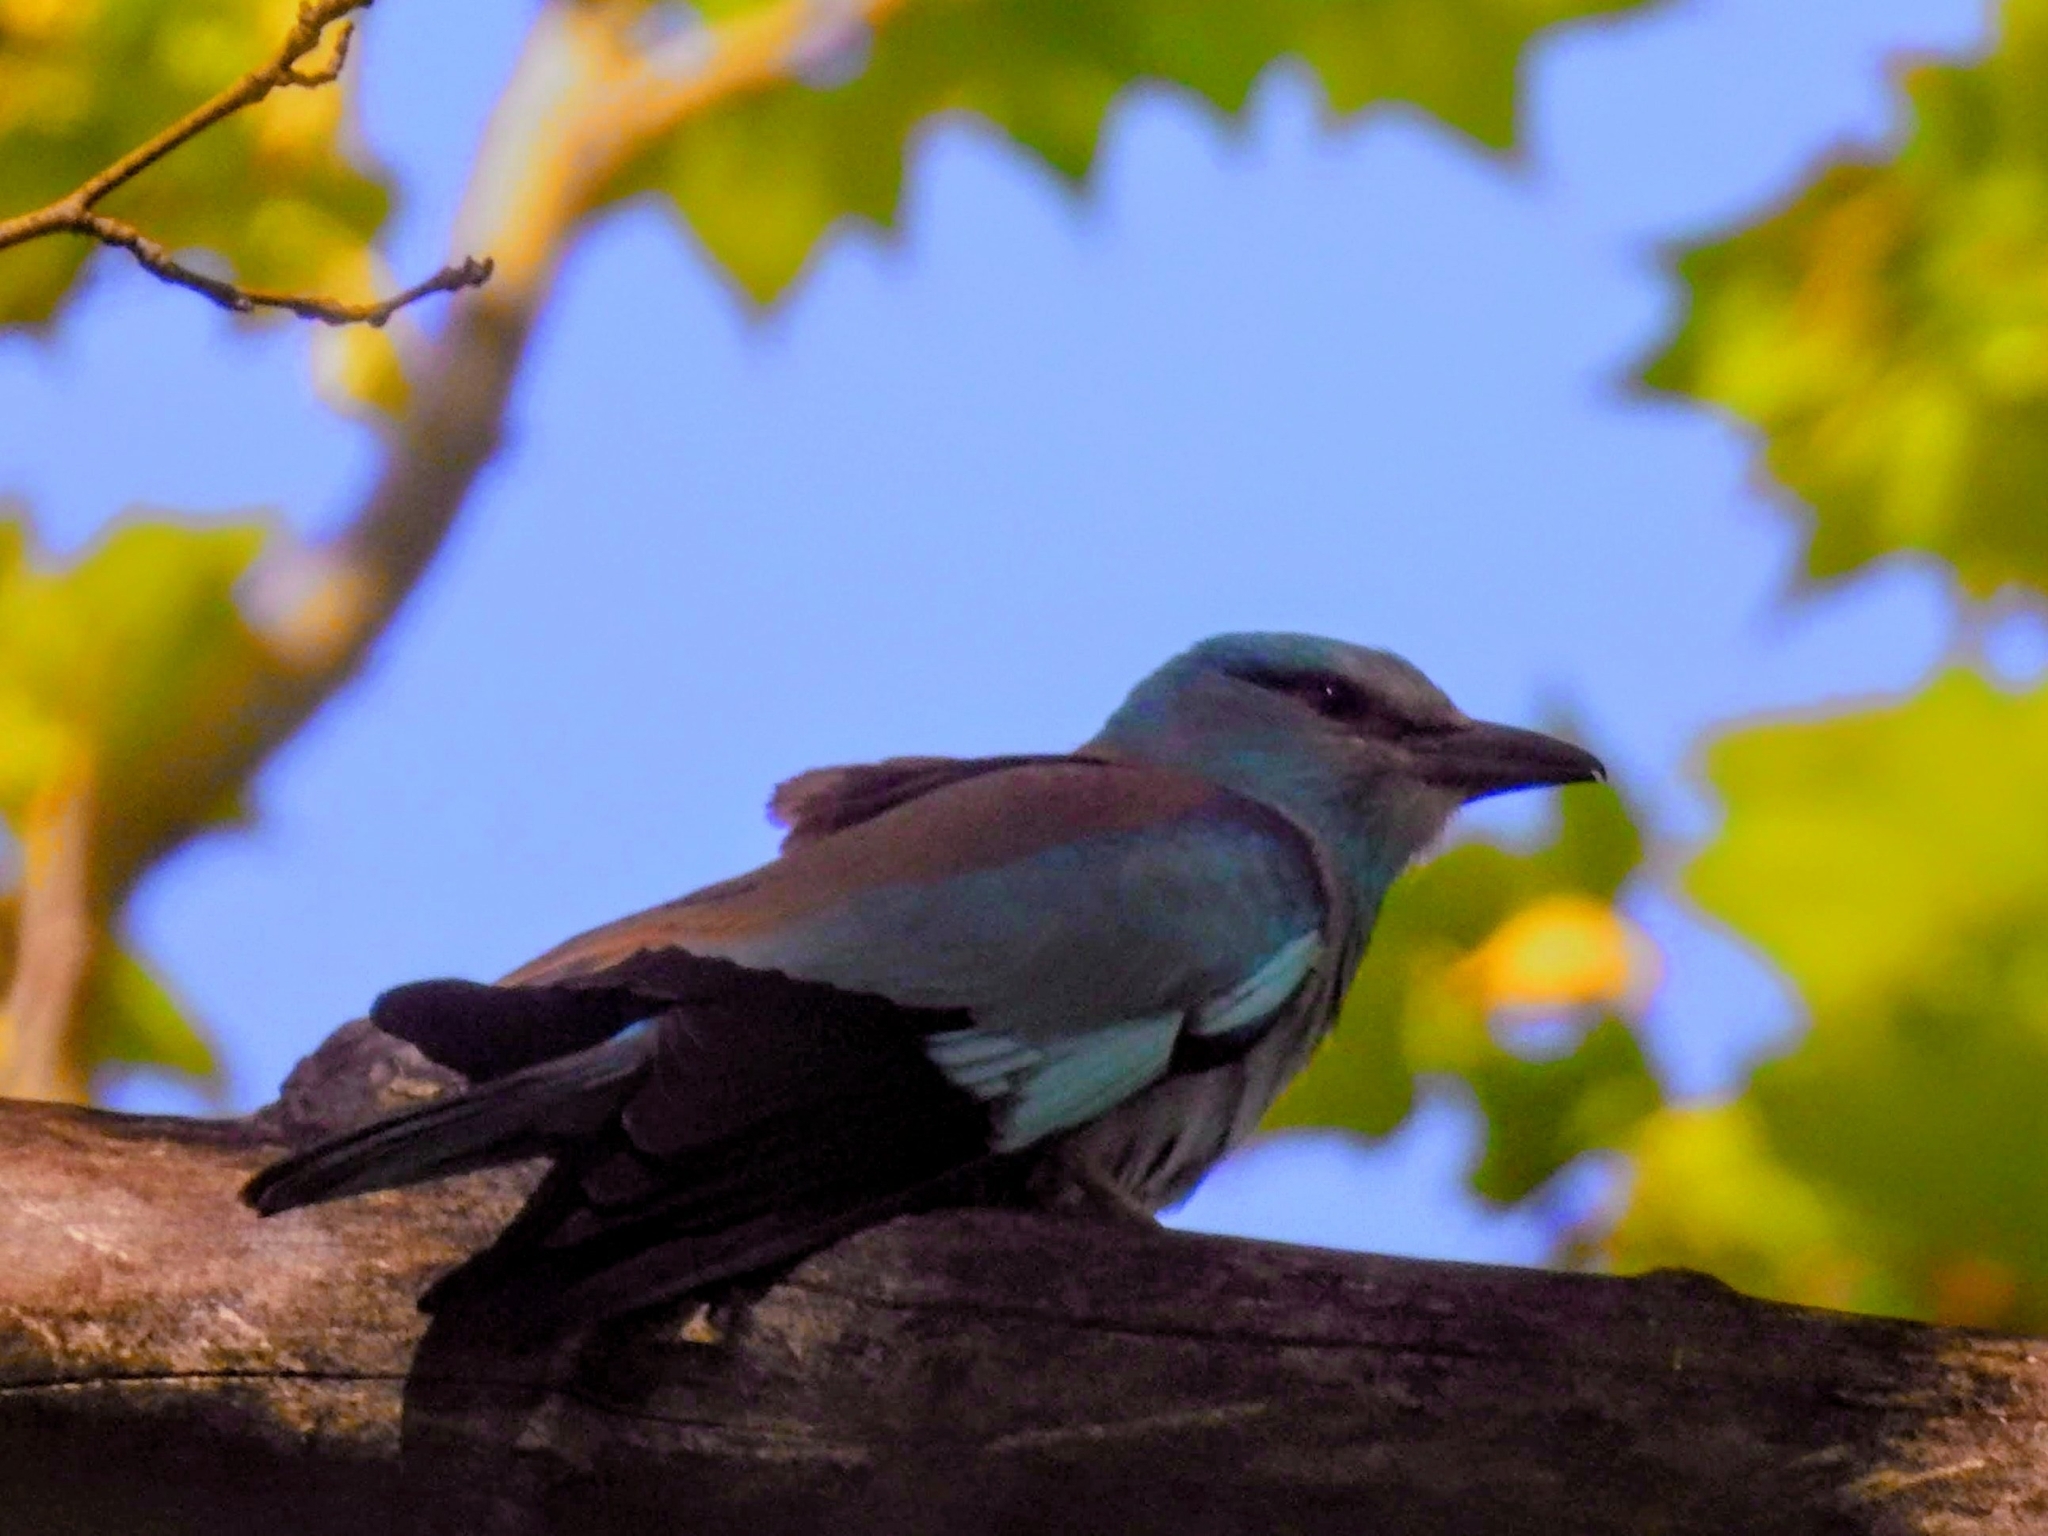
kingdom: Animalia
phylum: Chordata
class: Aves
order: Coraciiformes
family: Coraciidae
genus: Coracias
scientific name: Coracias garrulus
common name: European roller
